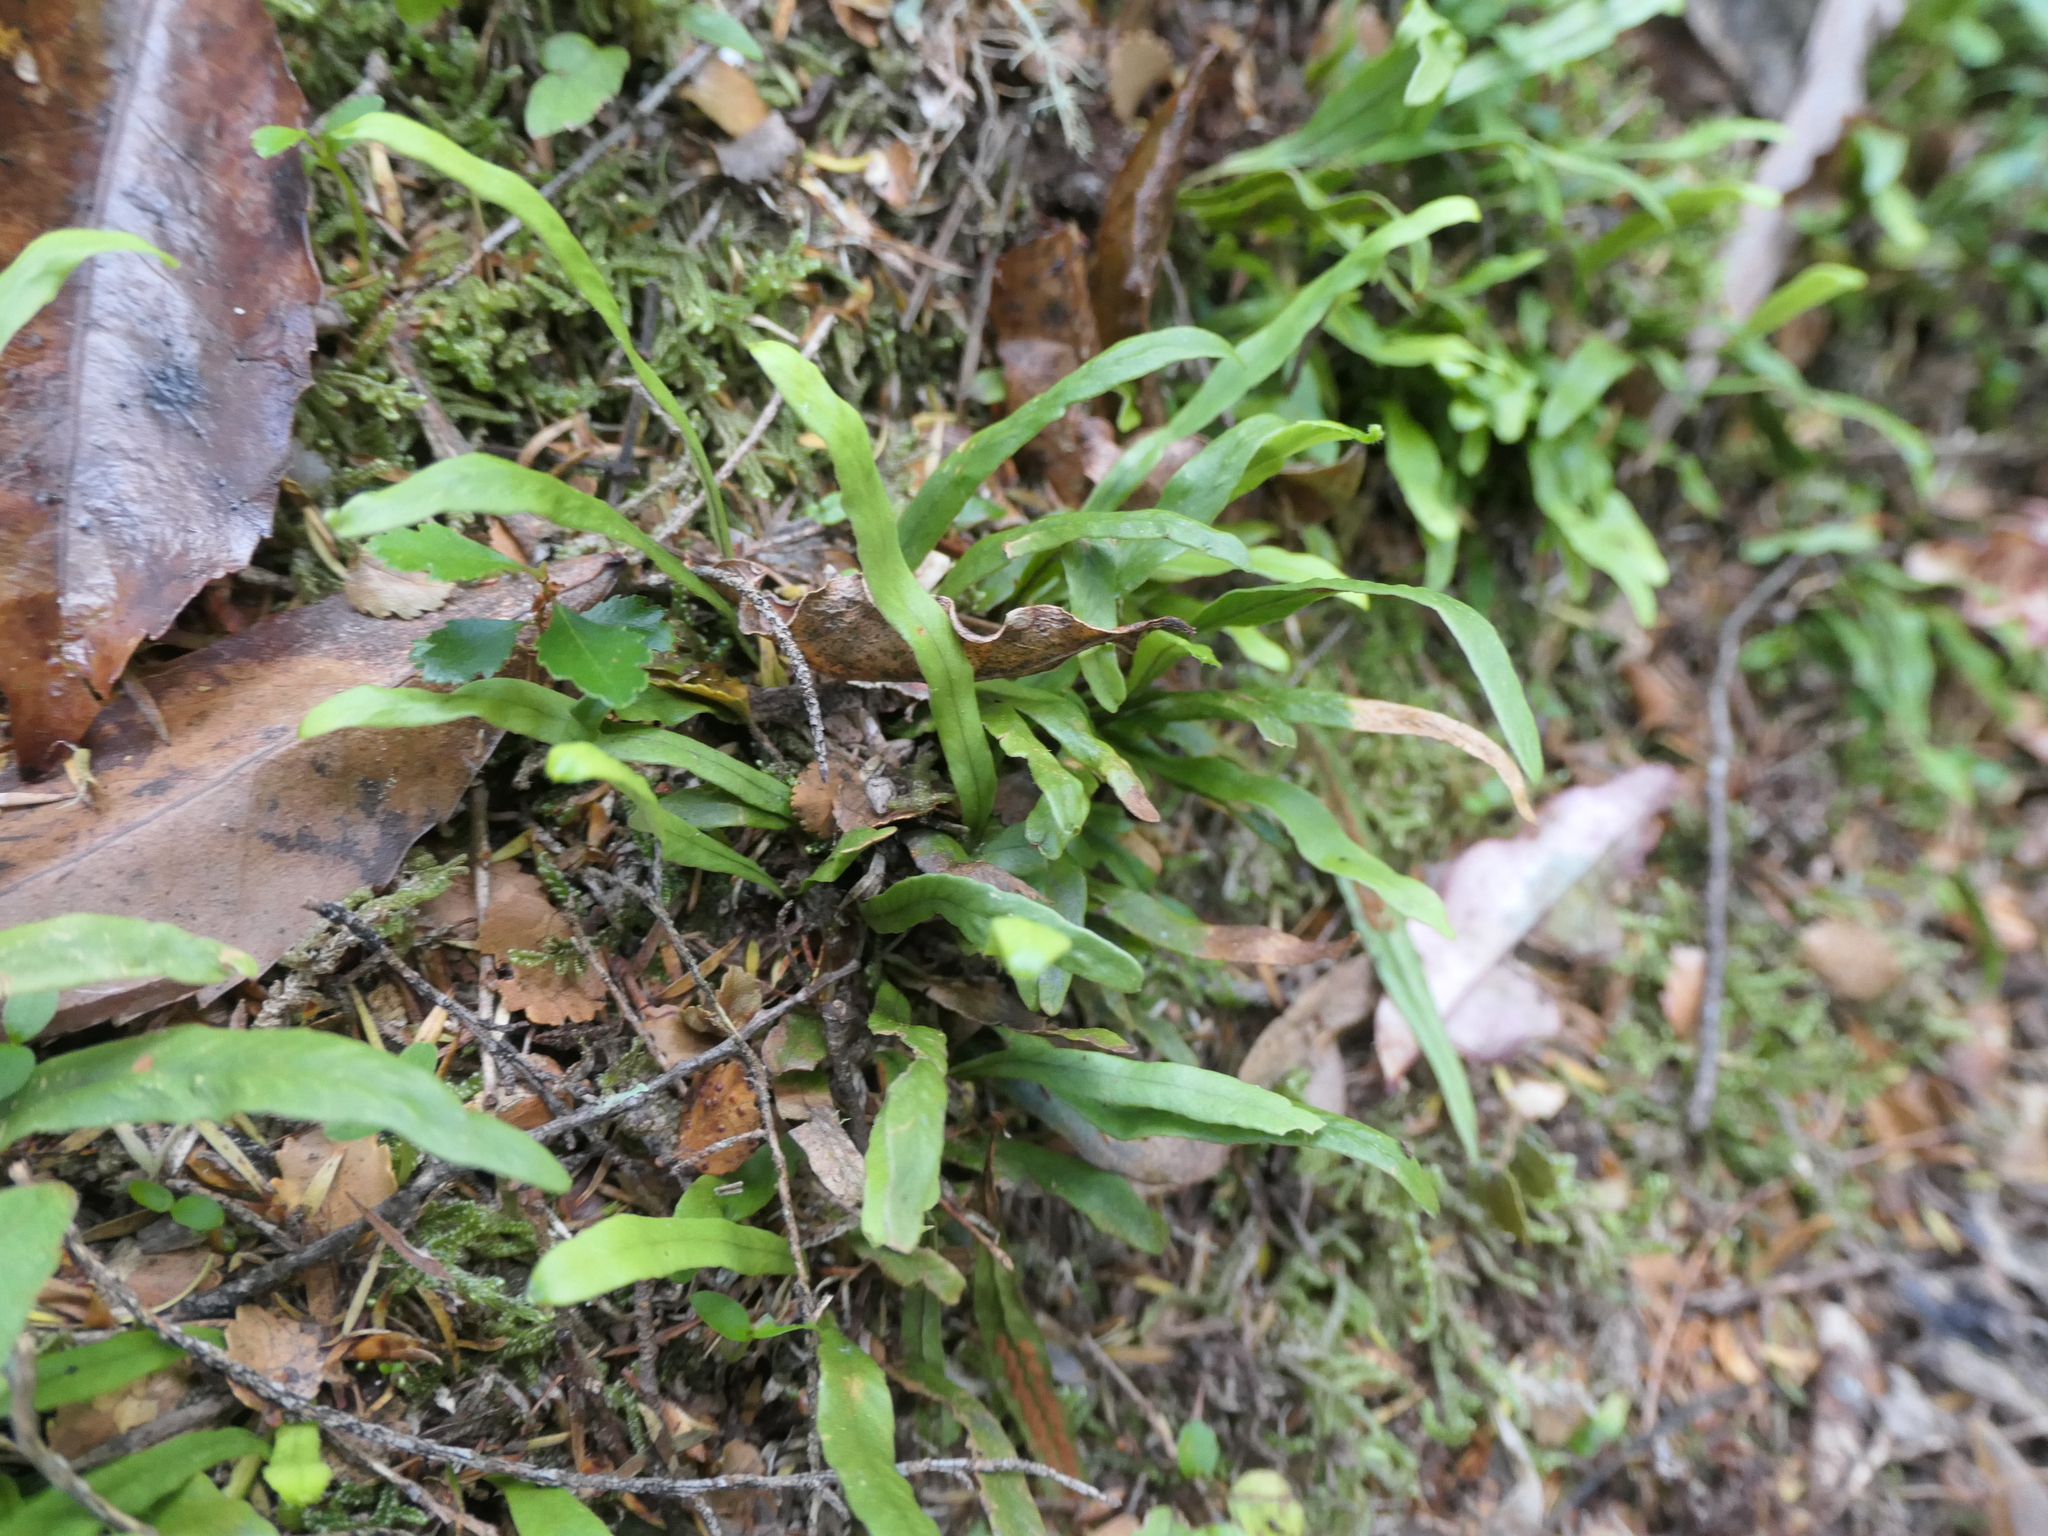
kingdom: Plantae
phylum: Tracheophyta
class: Polypodiopsida
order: Polypodiales
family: Polypodiaceae
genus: Notogrammitis
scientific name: Notogrammitis billardierei
